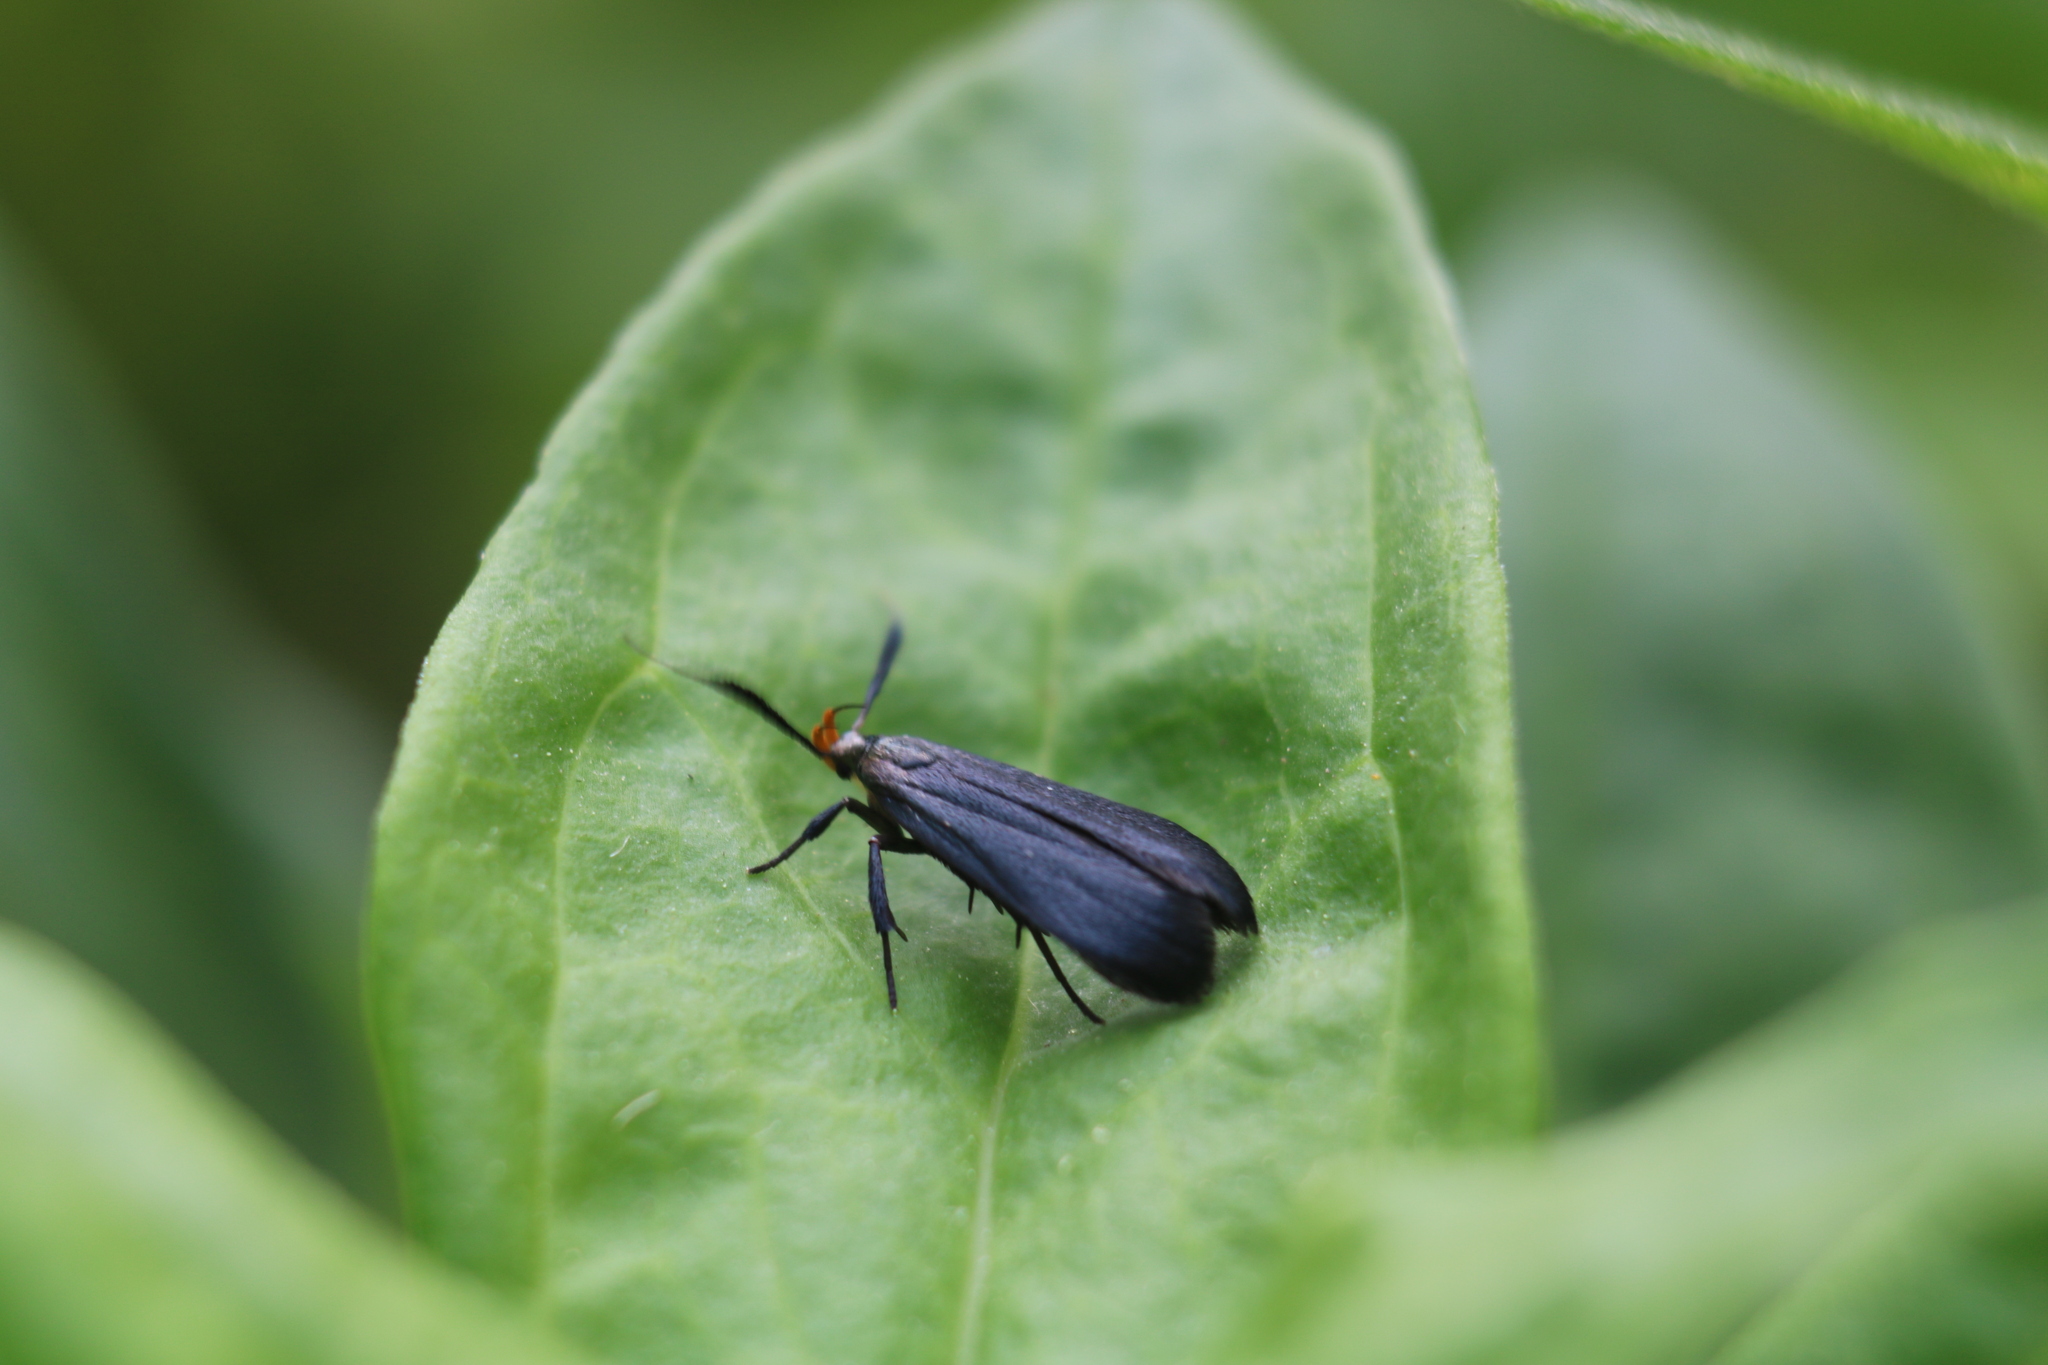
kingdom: Animalia
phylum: Arthropoda
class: Insecta
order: Lepidoptera
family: Gelechiidae
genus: Dichomeris
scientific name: Dichomeris nonstrigella
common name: Little devil moth
